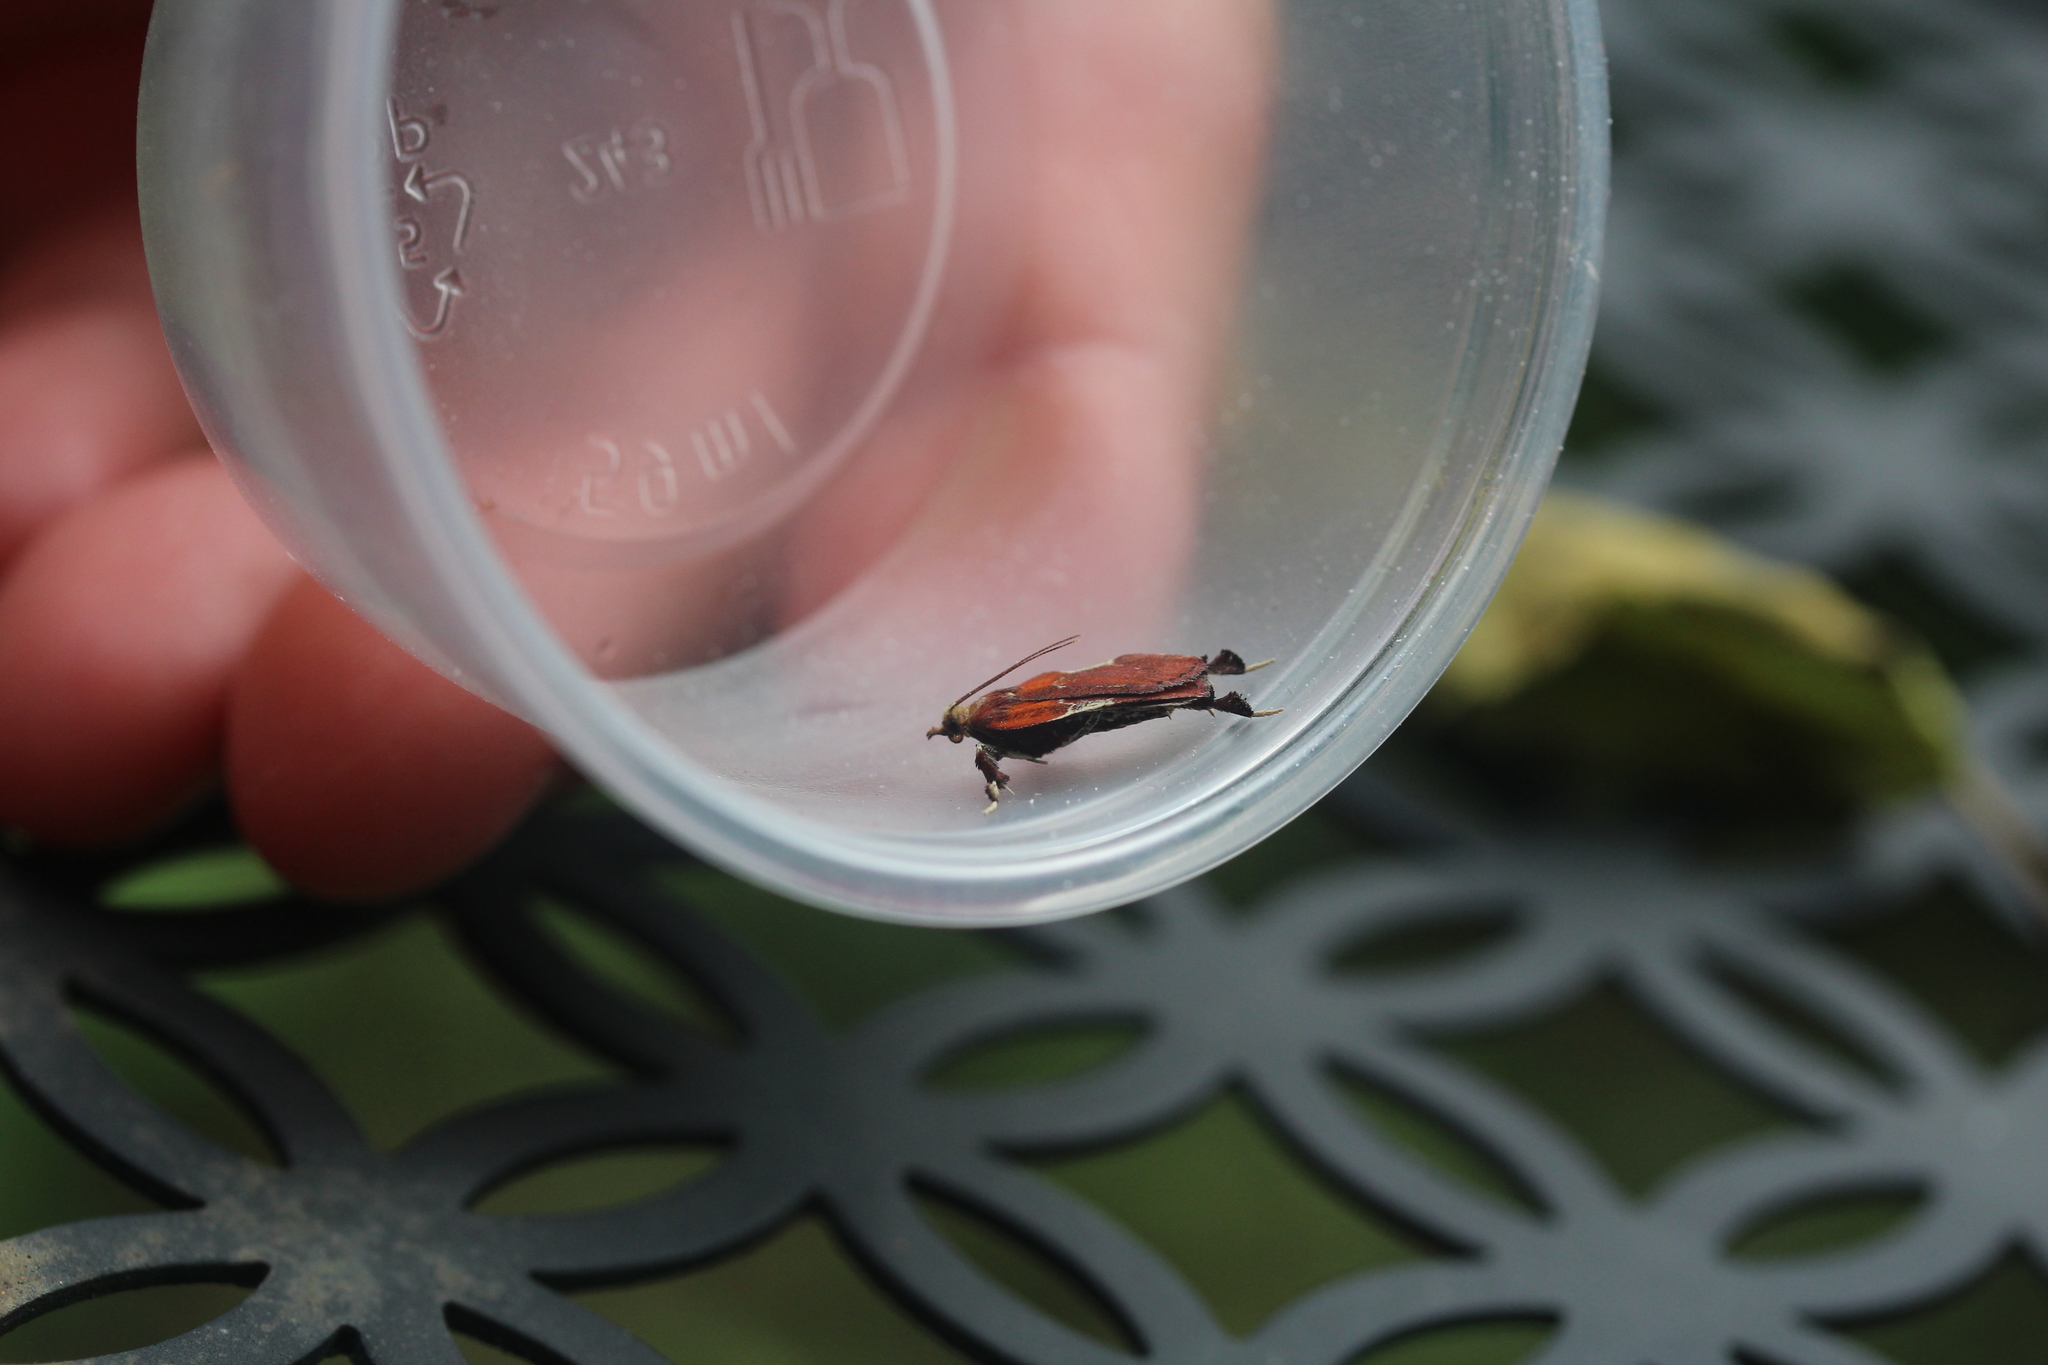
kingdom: Animalia
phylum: Arthropoda
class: Insecta
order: Lepidoptera
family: Pyralidae
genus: Galasa
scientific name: Galasa nigrinodis
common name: Boxwood leaftier moth
